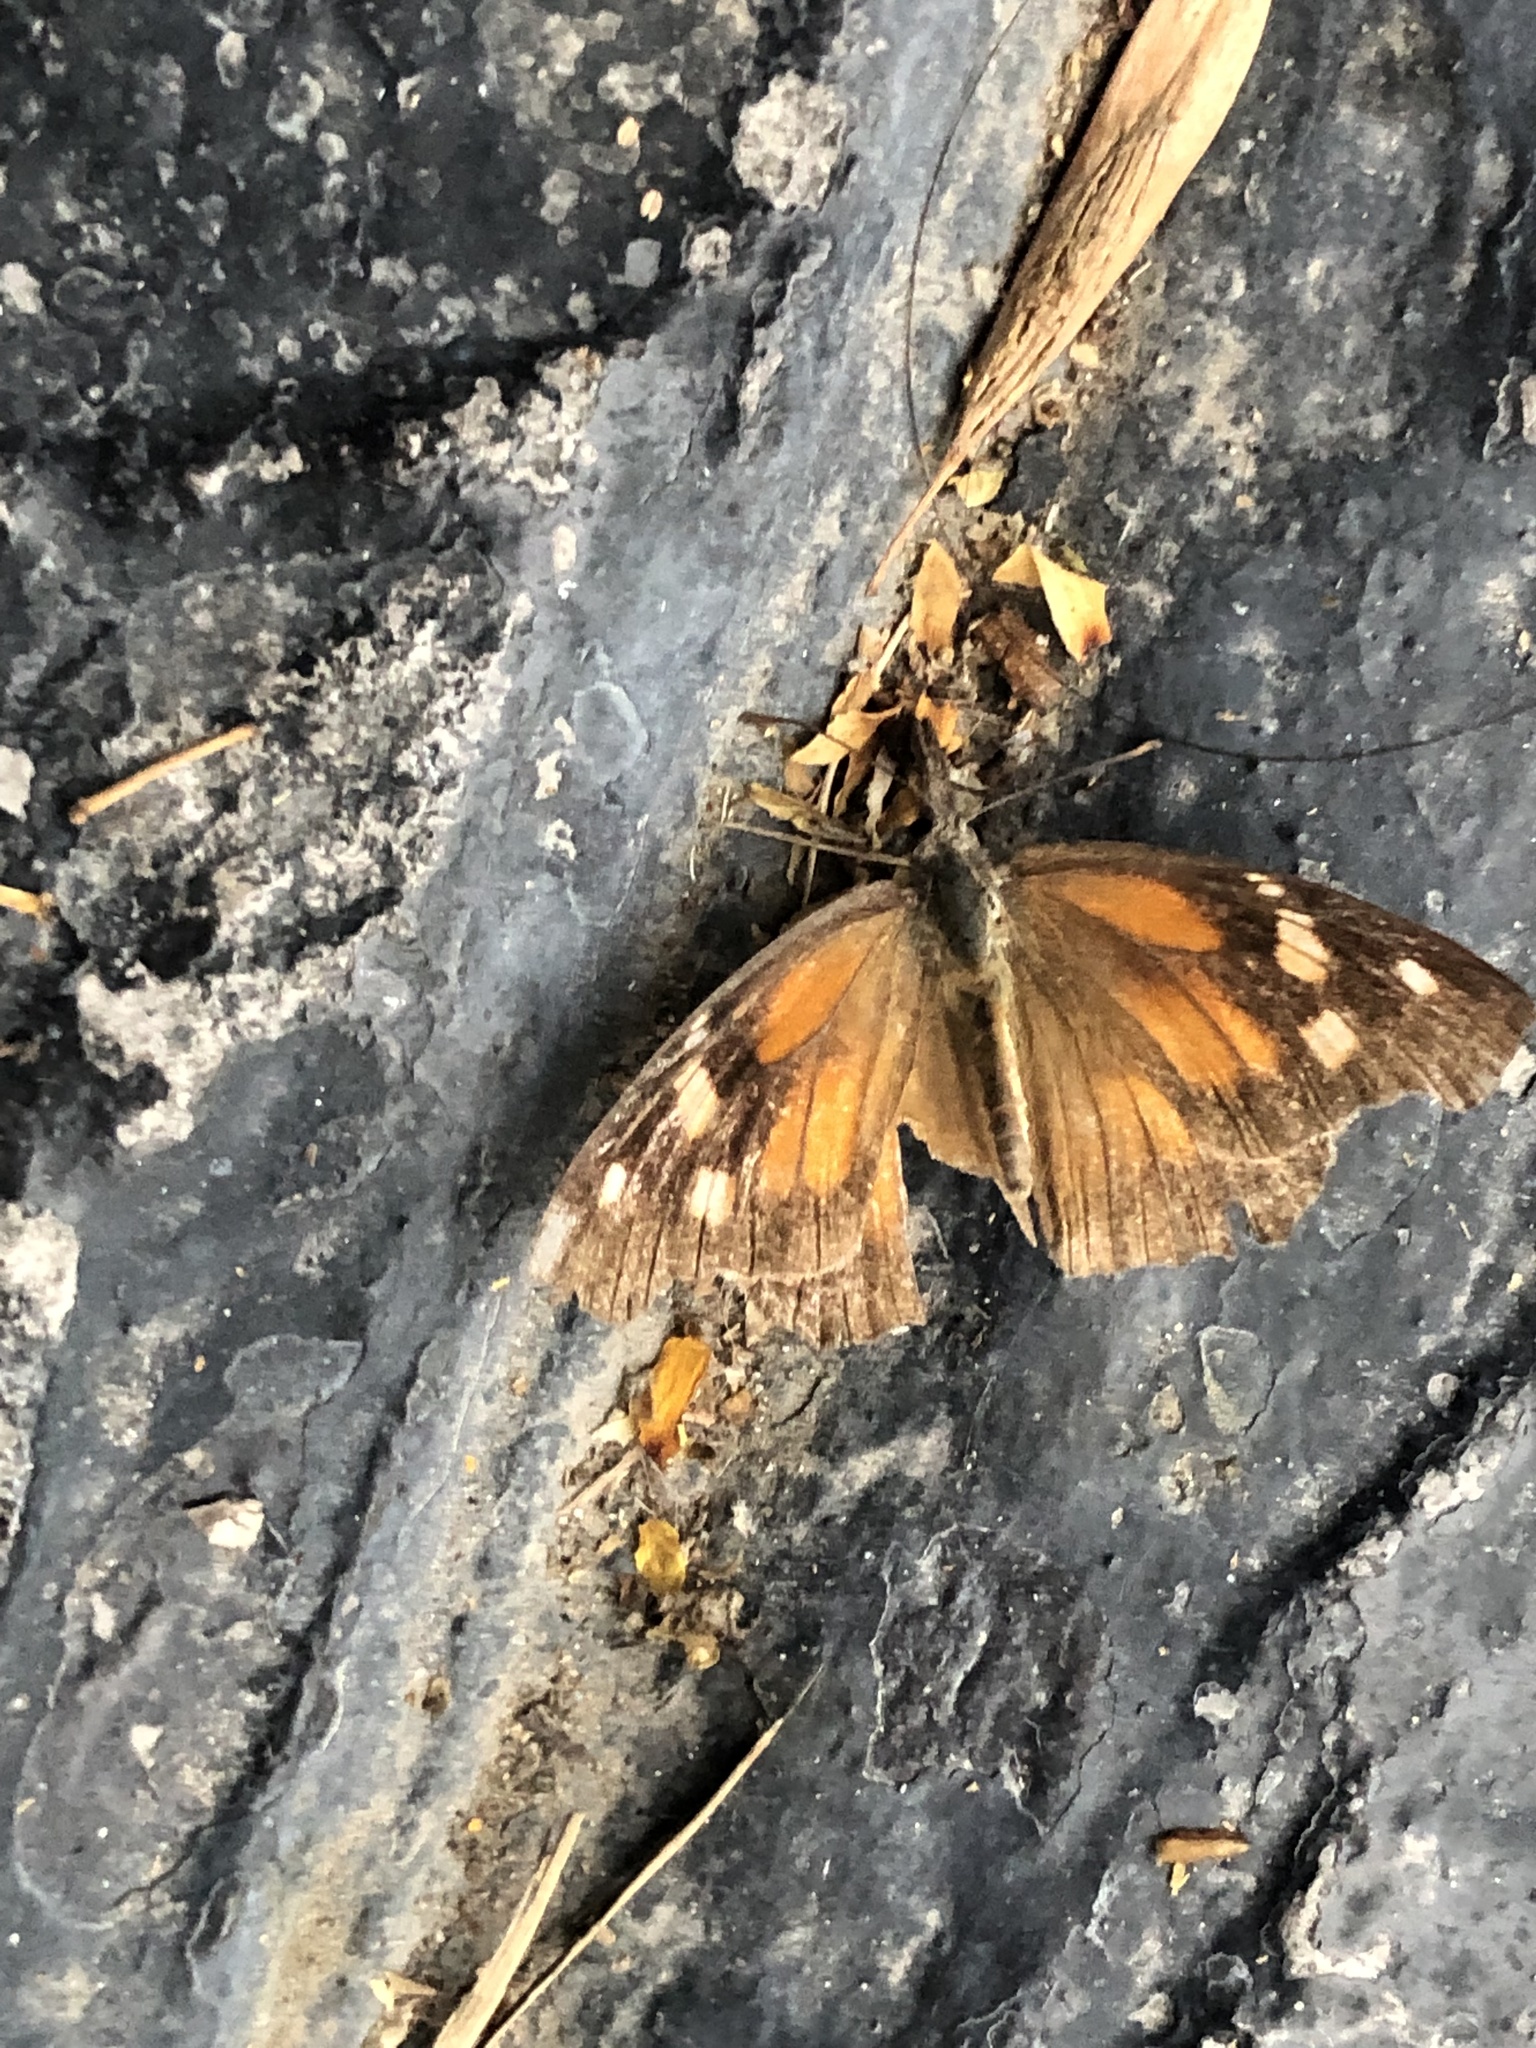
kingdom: Animalia
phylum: Arthropoda
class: Insecta
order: Lepidoptera
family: Nymphalidae
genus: Libytheana
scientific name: Libytheana carinenta
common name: American snout
